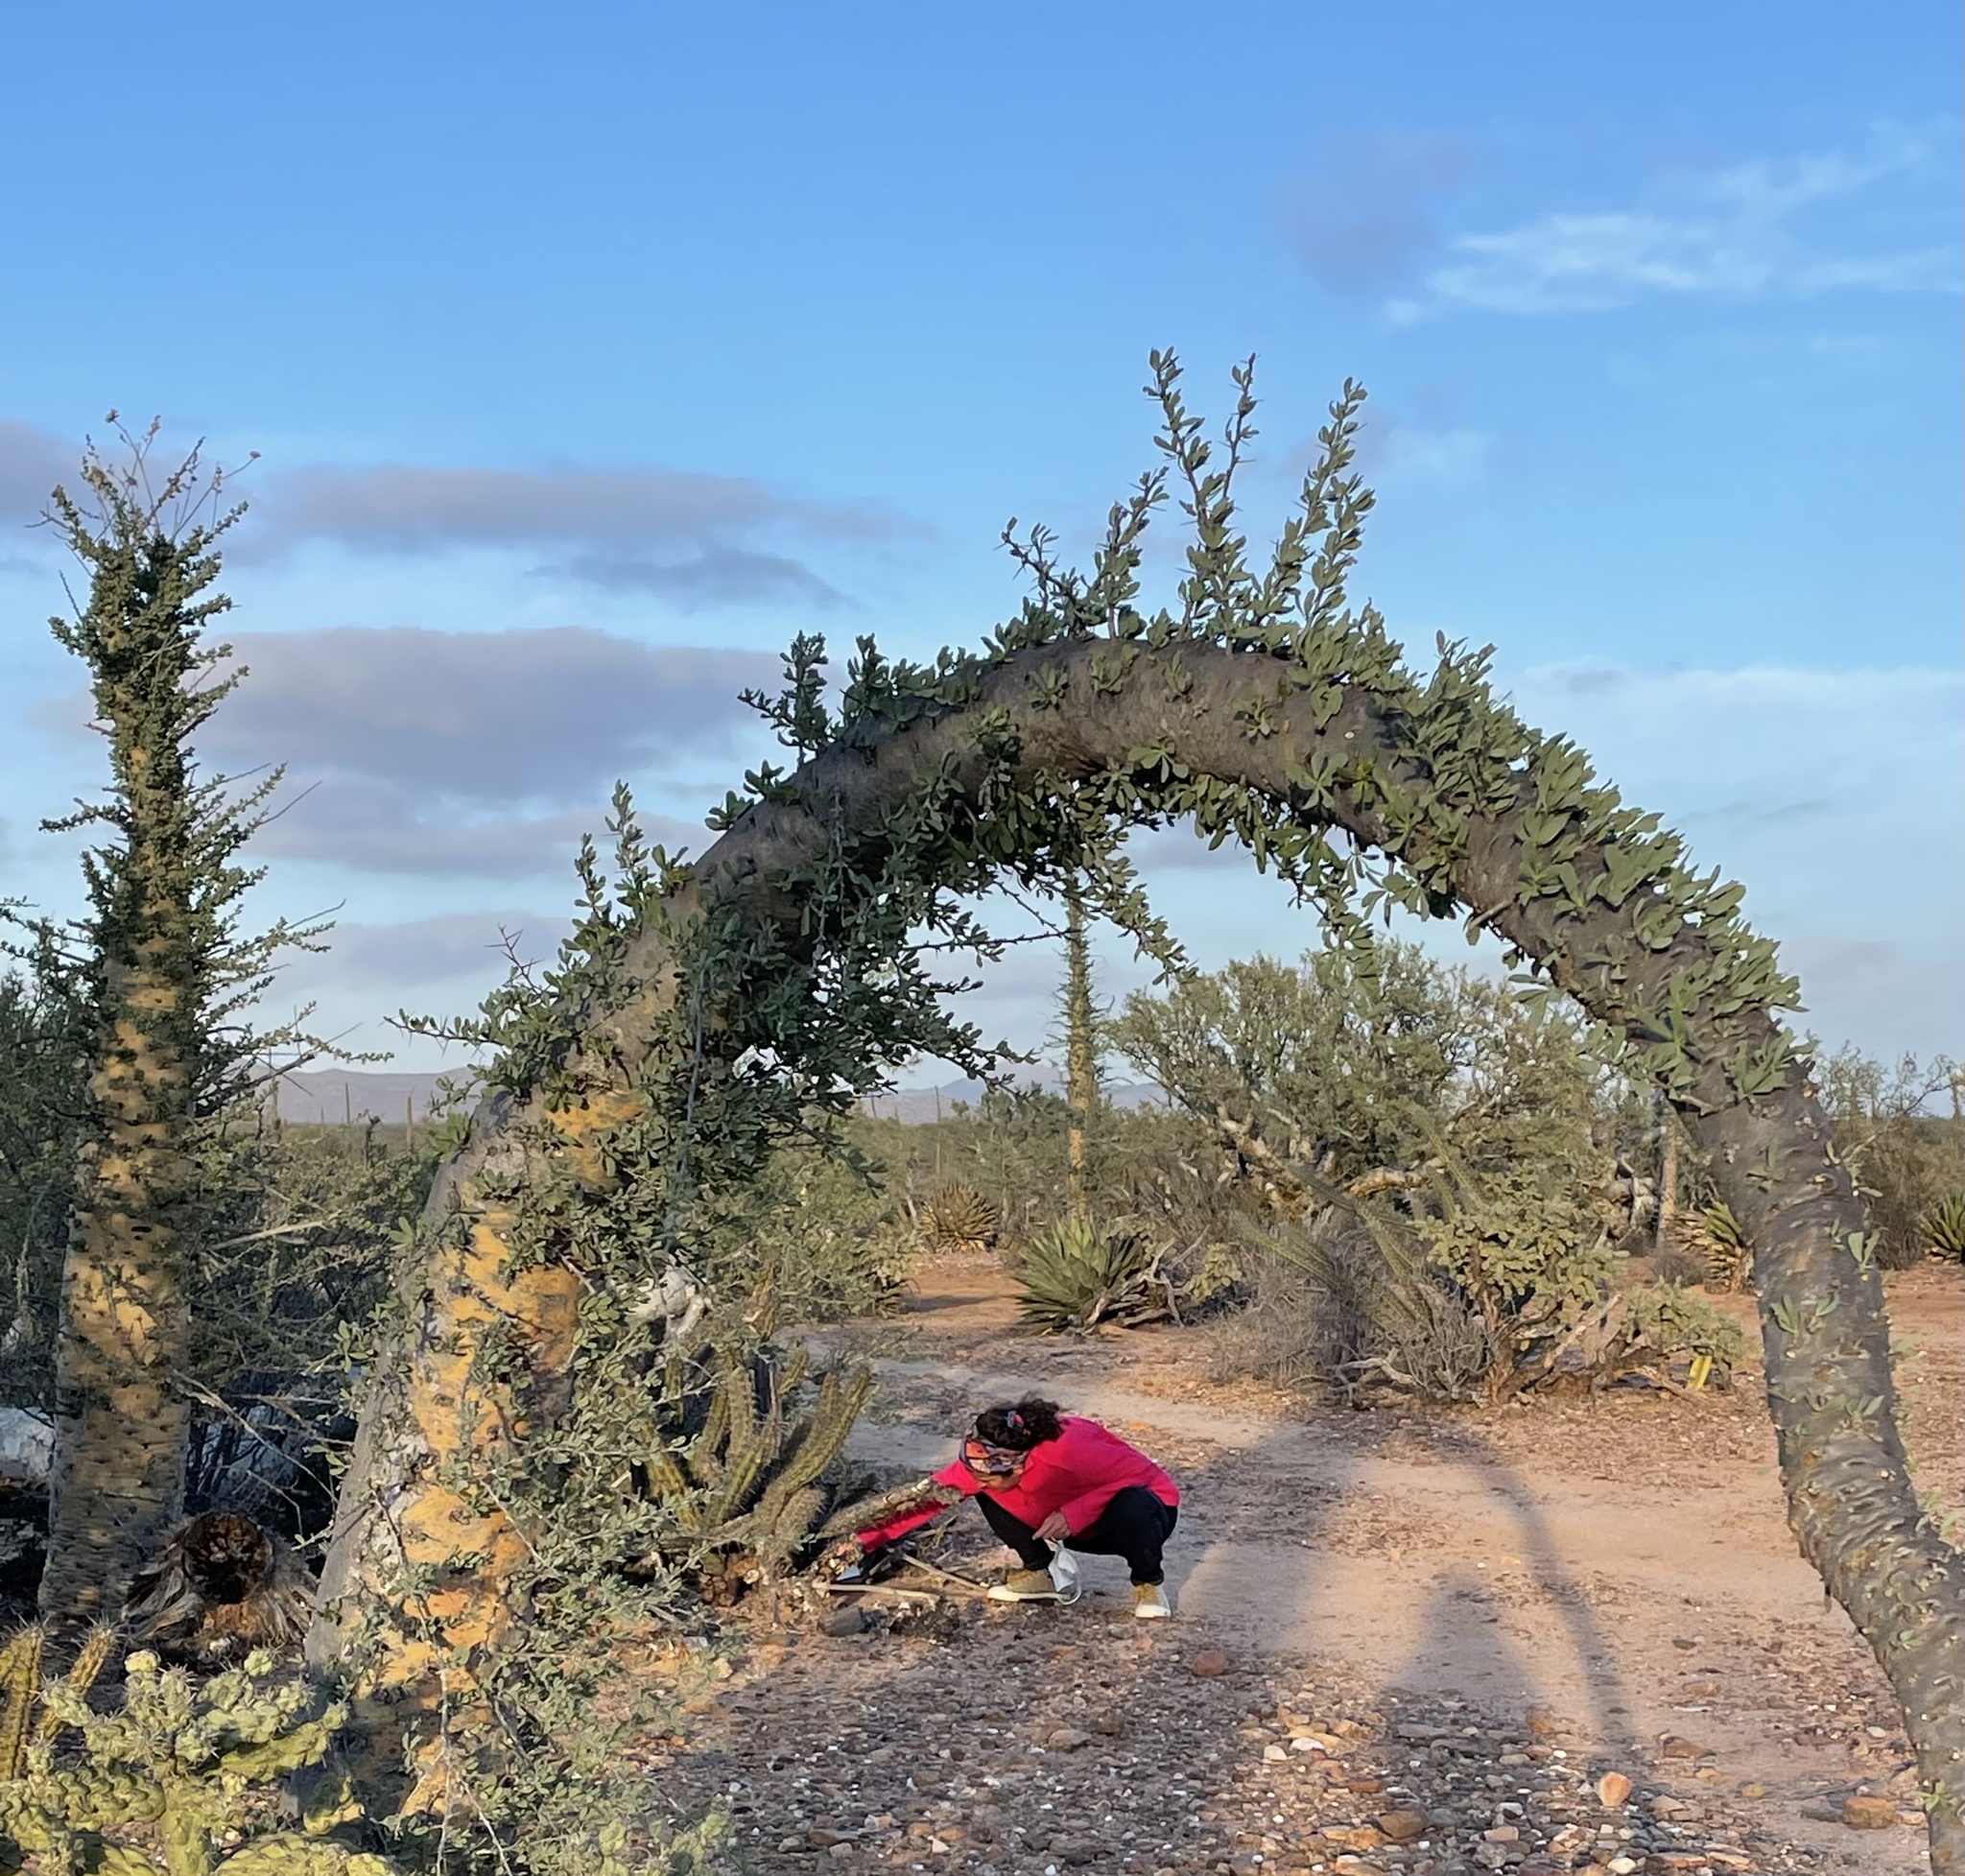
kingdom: Plantae
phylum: Tracheophyta
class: Magnoliopsida
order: Ericales
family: Fouquieriaceae
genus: Fouquieria
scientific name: Fouquieria columnaris
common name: Boojumtree
